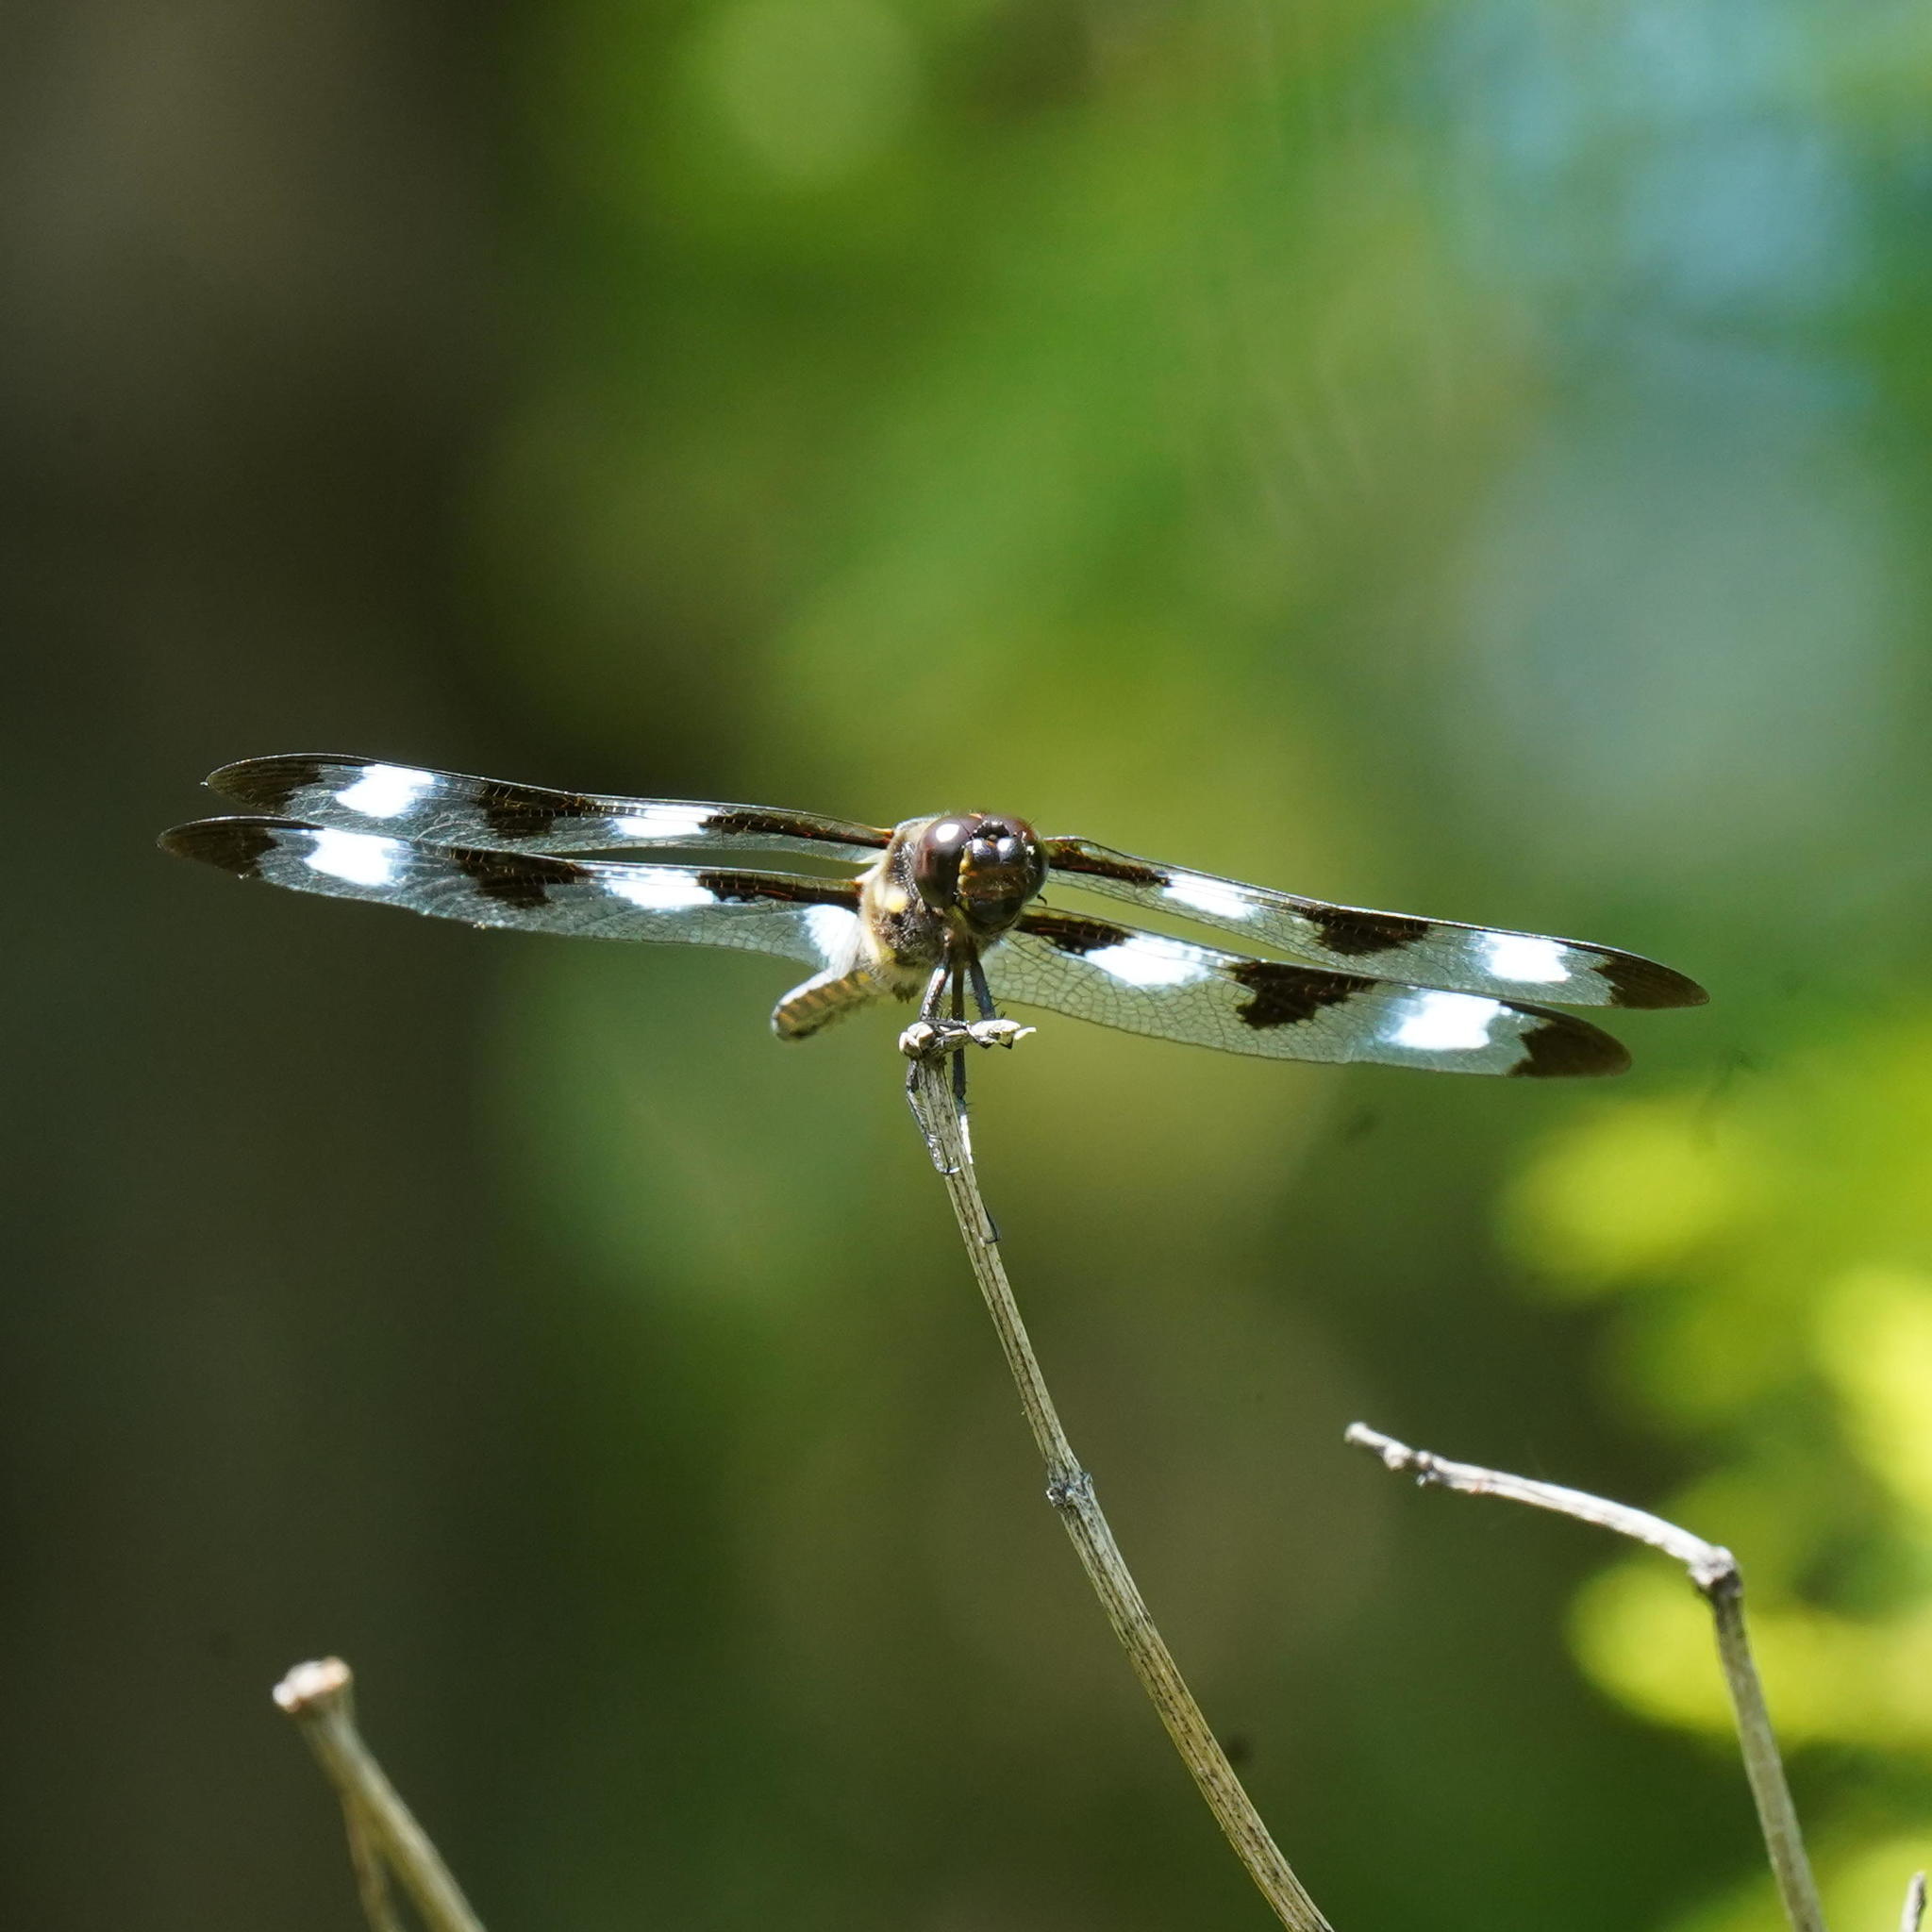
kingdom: Animalia
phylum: Arthropoda
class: Insecta
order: Odonata
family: Libellulidae
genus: Libellula
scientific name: Libellula pulchella
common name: Twelve-spotted skimmer
